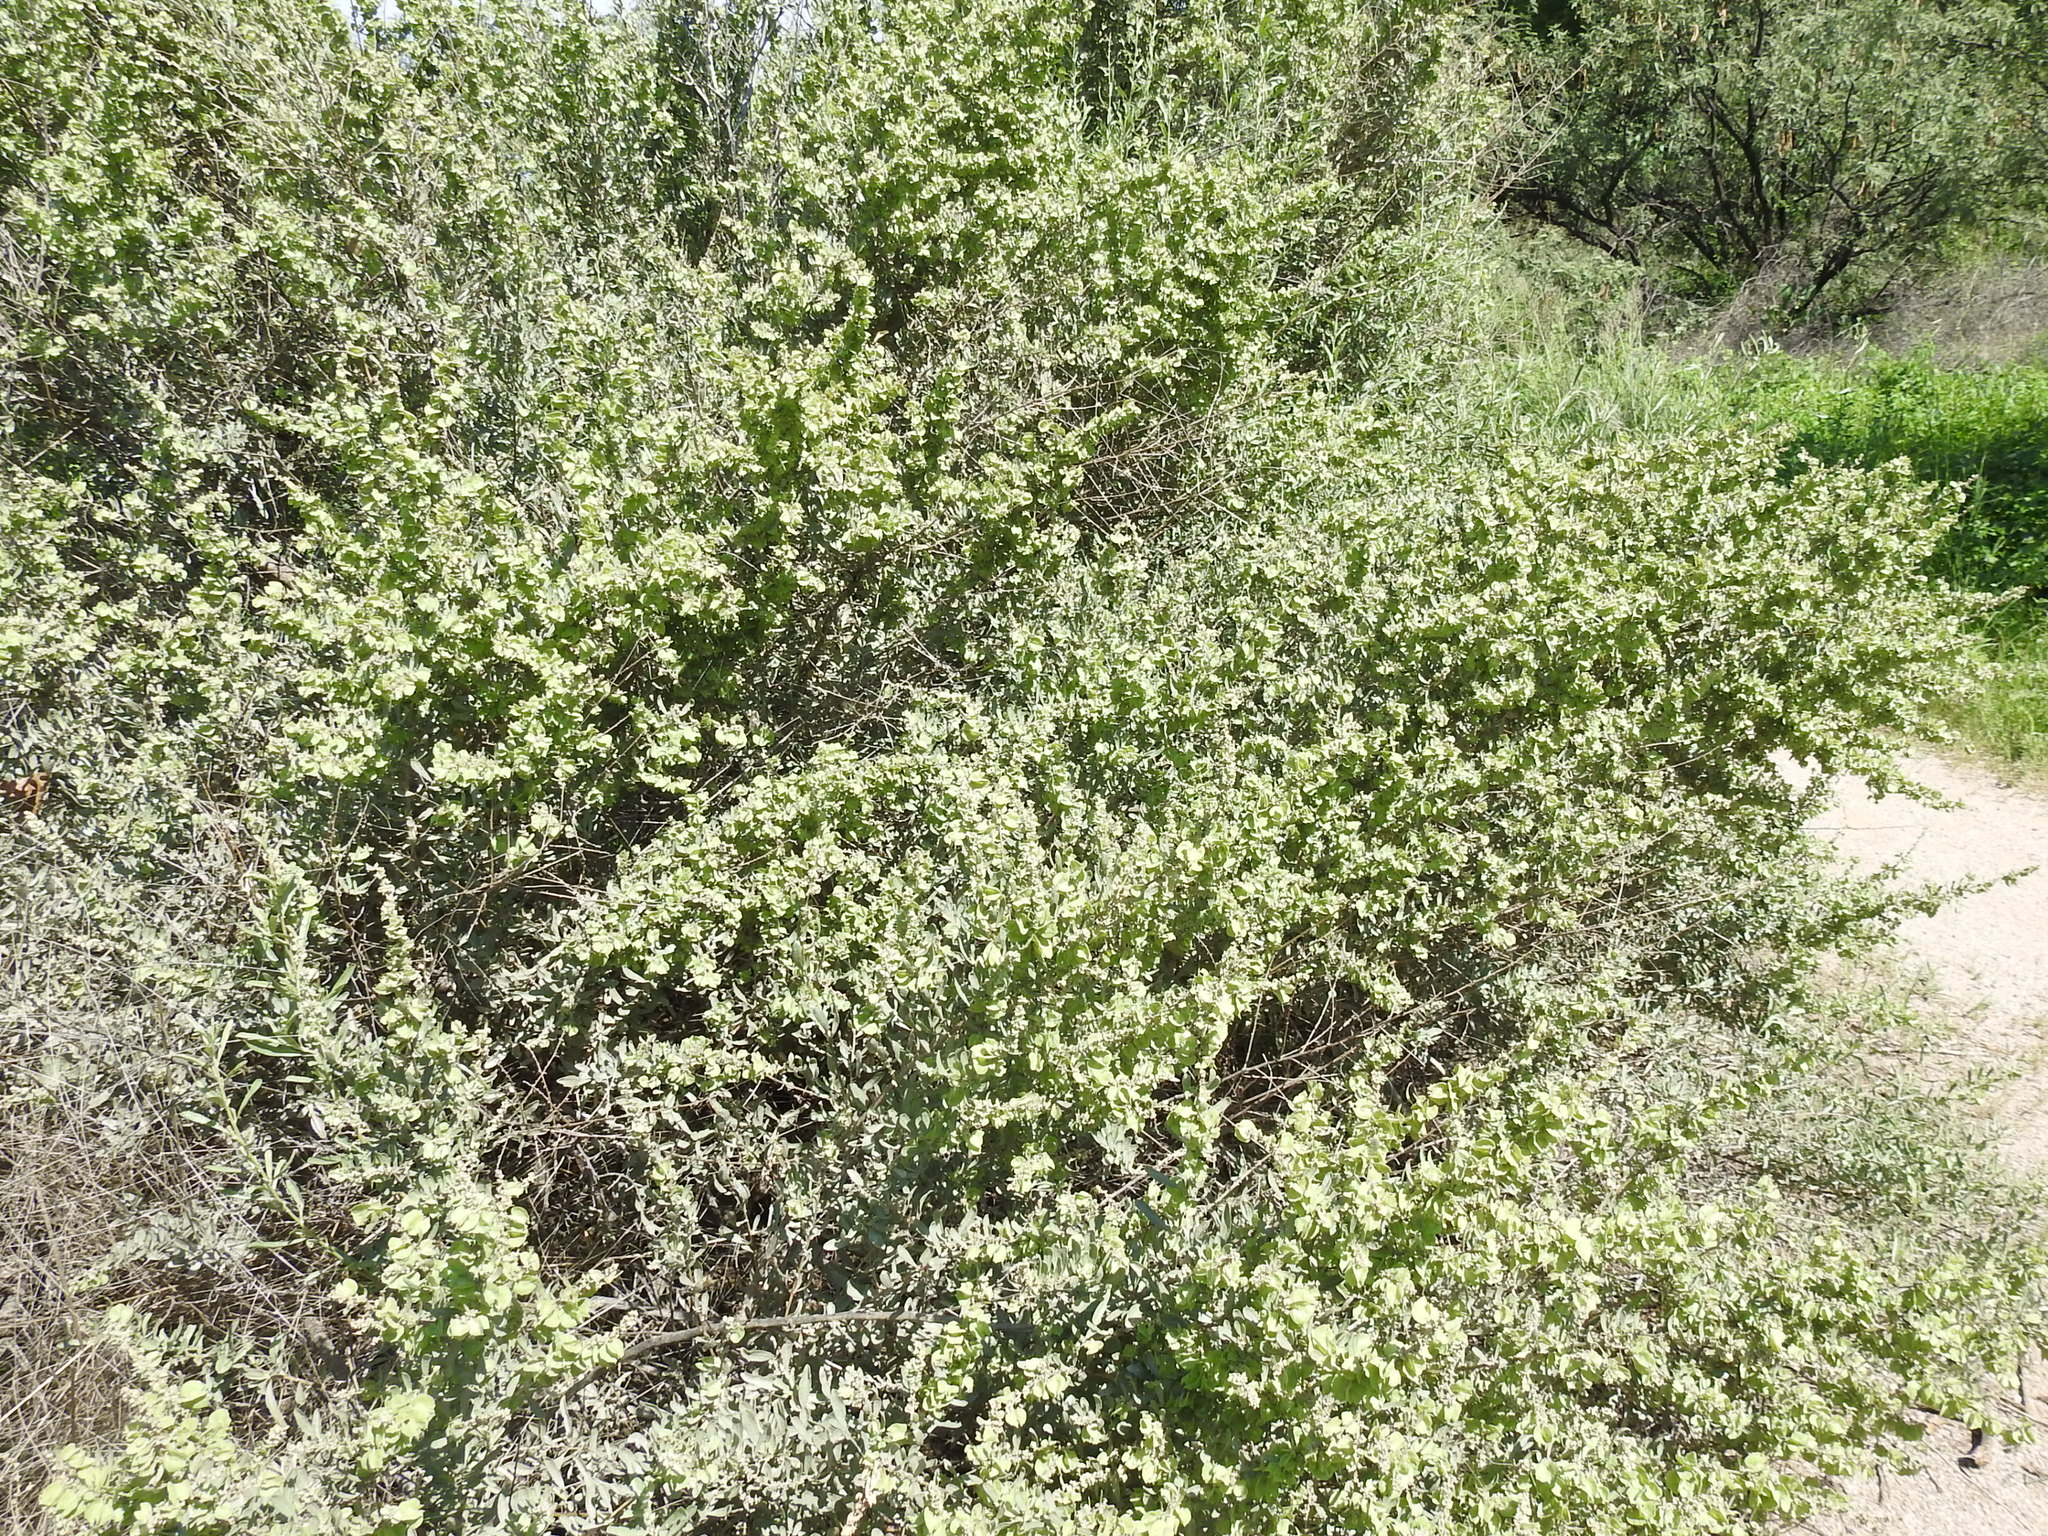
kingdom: Plantae
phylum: Tracheophyta
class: Magnoliopsida
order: Caryophyllales
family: Amaranthaceae
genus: Atriplex
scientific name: Atriplex canescens
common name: Four-wing saltbush
